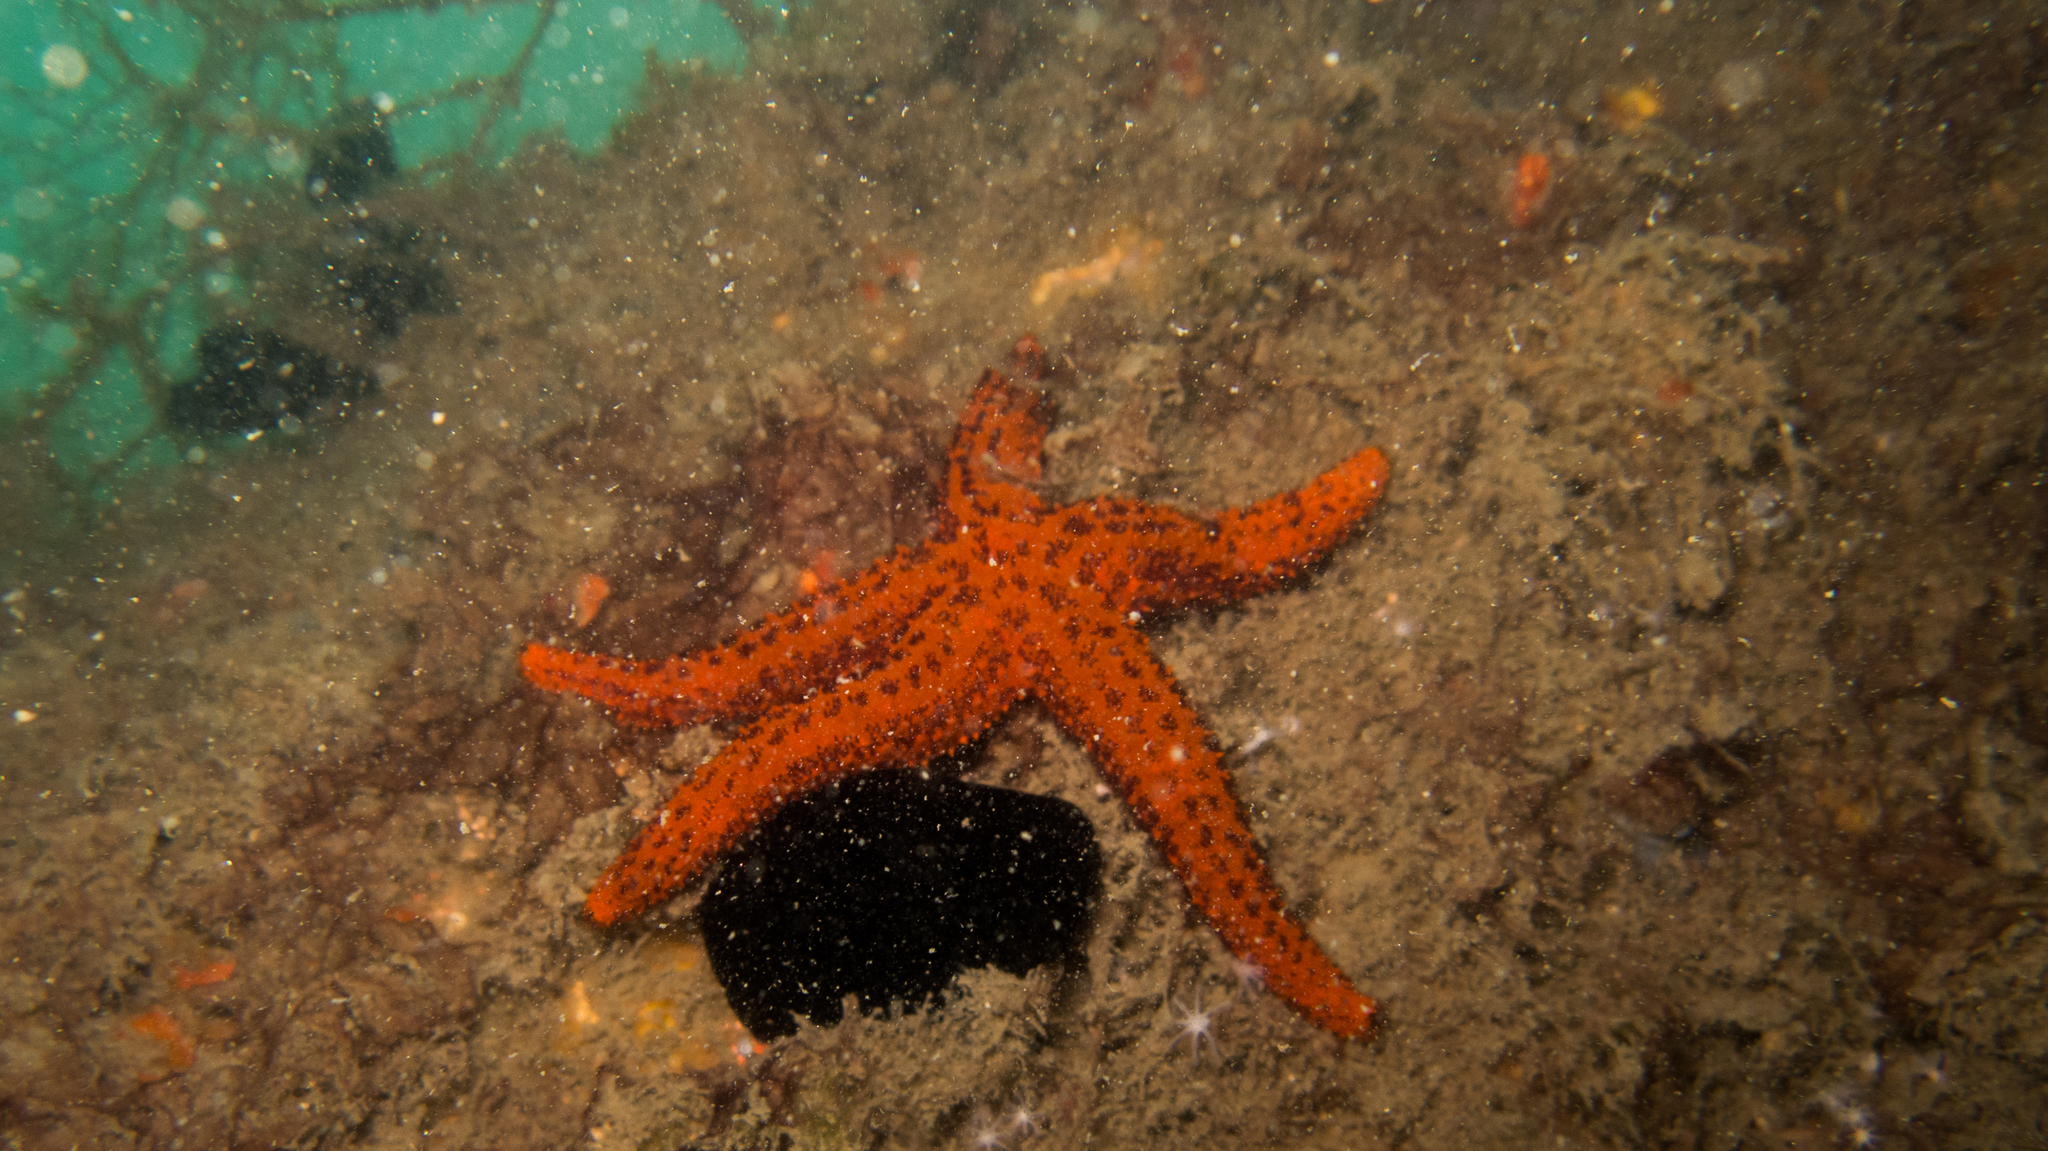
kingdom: Animalia
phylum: Echinodermata
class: Asteroidea
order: Spinulosida
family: Echinasteridae
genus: Echinaster
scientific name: Echinaster brasiliensis
